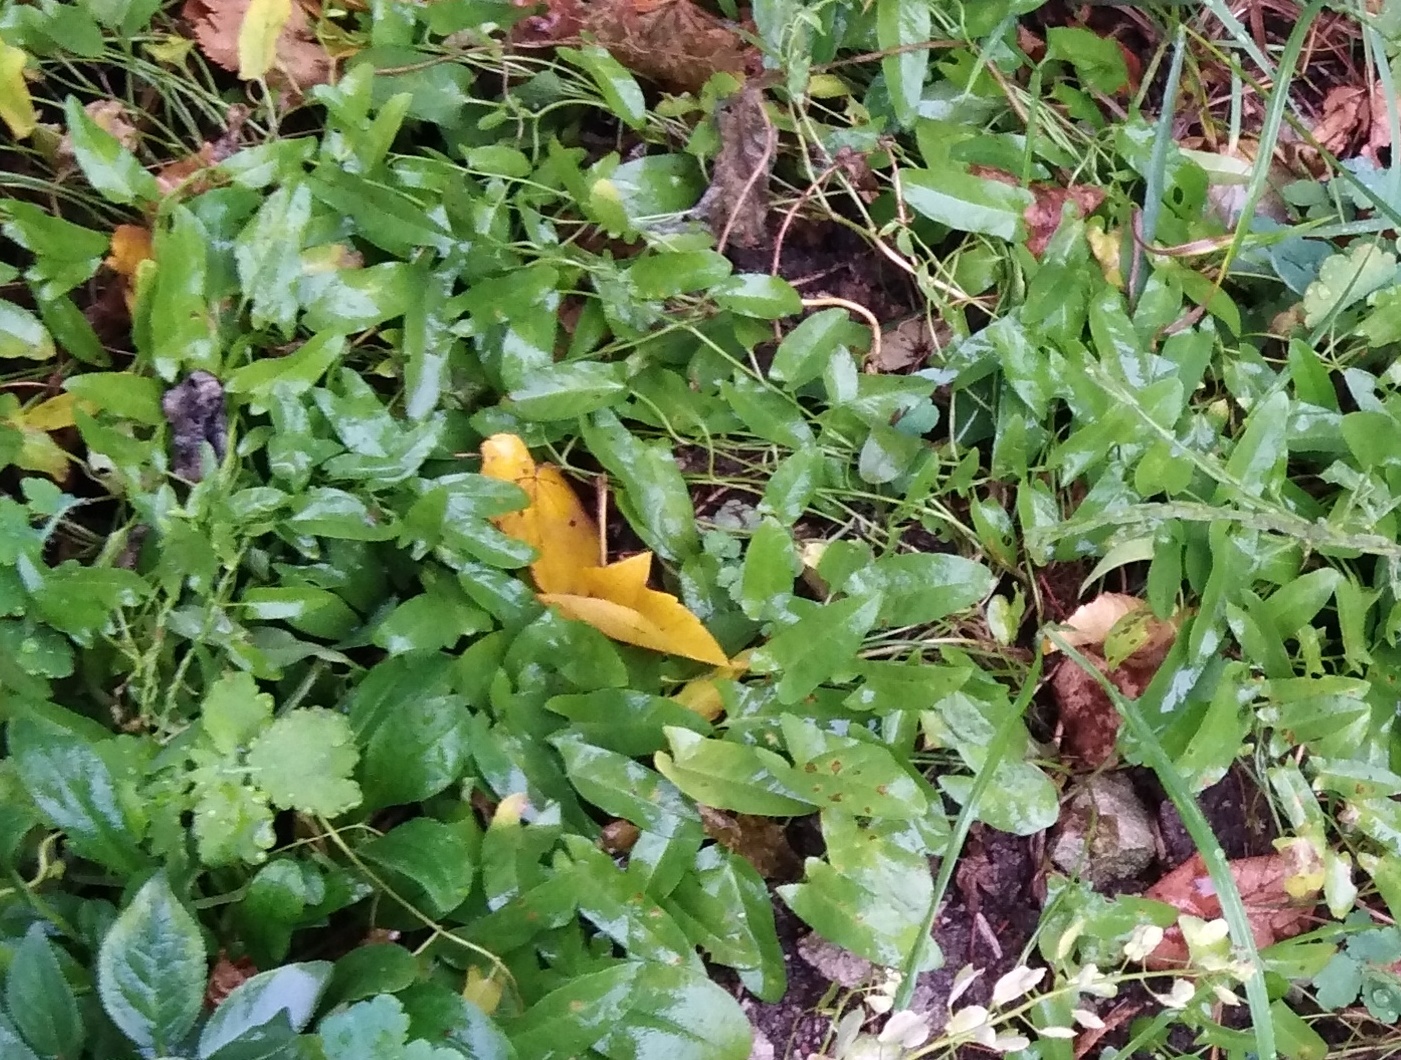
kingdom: Plantae
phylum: Tracheophyta
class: Magnoliopsida
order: Solanales
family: Convolvulaceae
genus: Convolvulus
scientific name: Convolvulus arvensis
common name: Field bindweed
